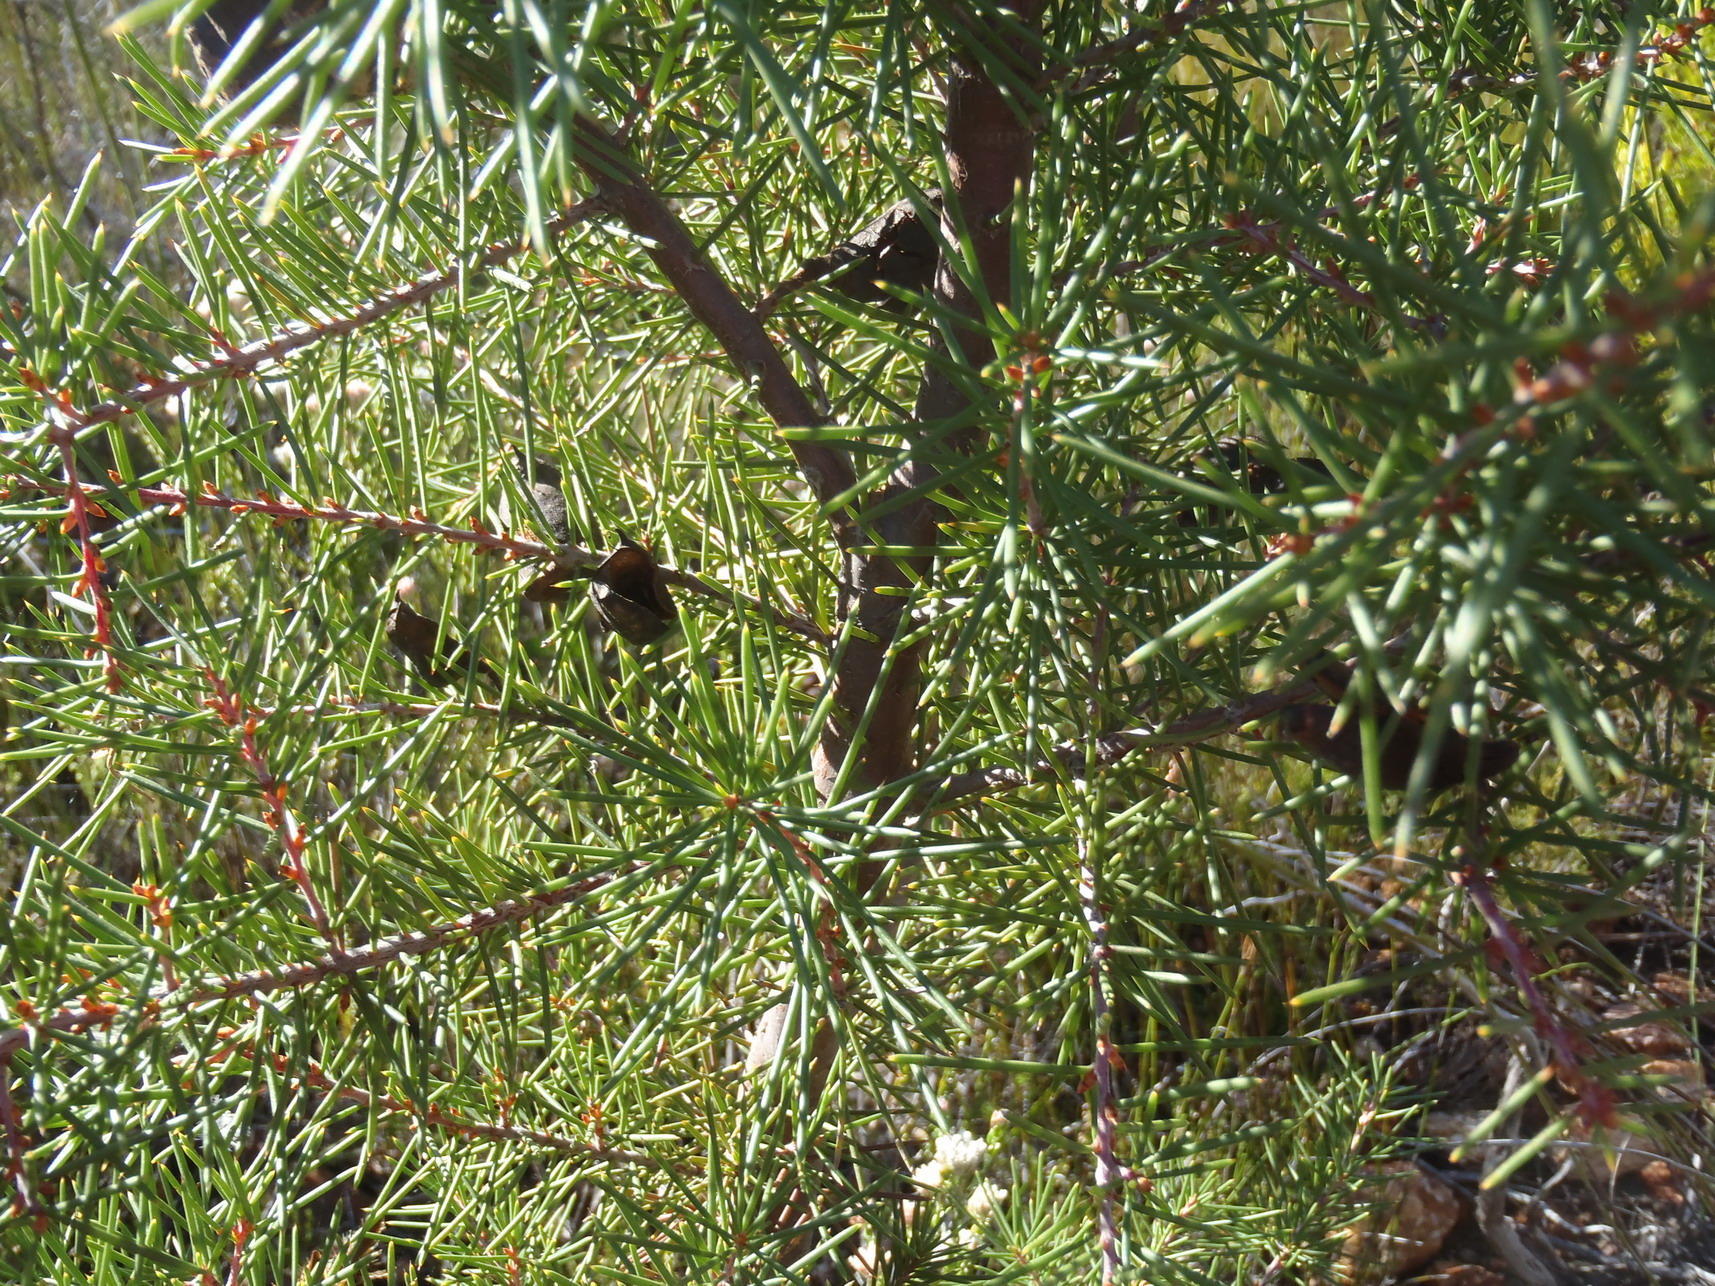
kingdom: Plantae
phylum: Tracheophyta
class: Magnoliopsida
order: Proteales
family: Proteaceae
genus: Hakea
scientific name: Hakea sericea
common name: Needle bush
